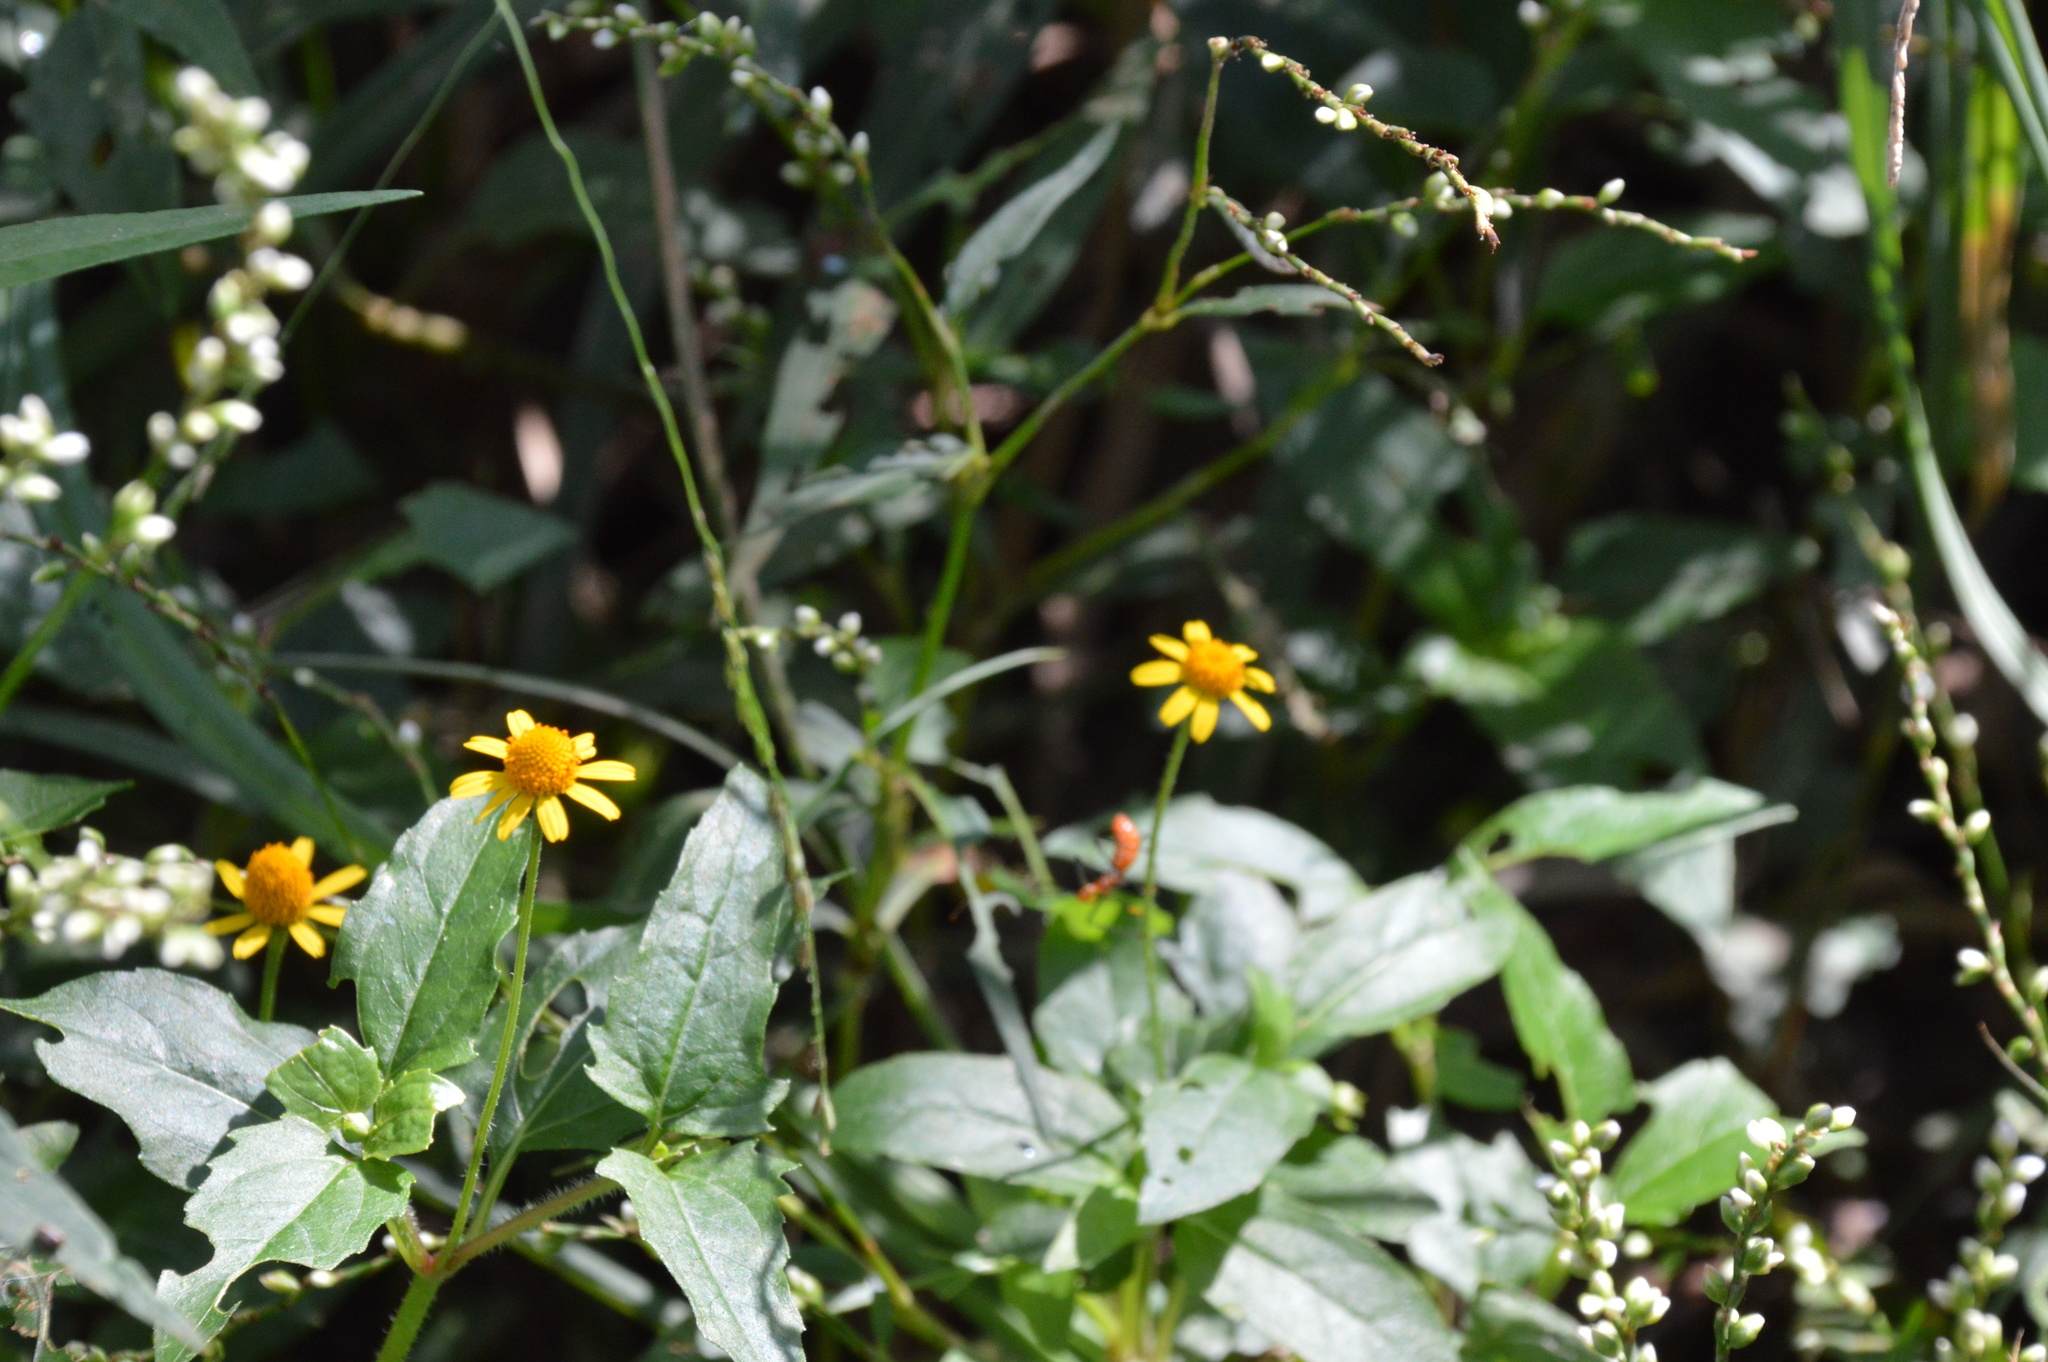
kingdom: Plantae
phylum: Tracheophyta
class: Magnoliopsida
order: Asterales
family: Asteraceae
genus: Acmella
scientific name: Acmella repens
